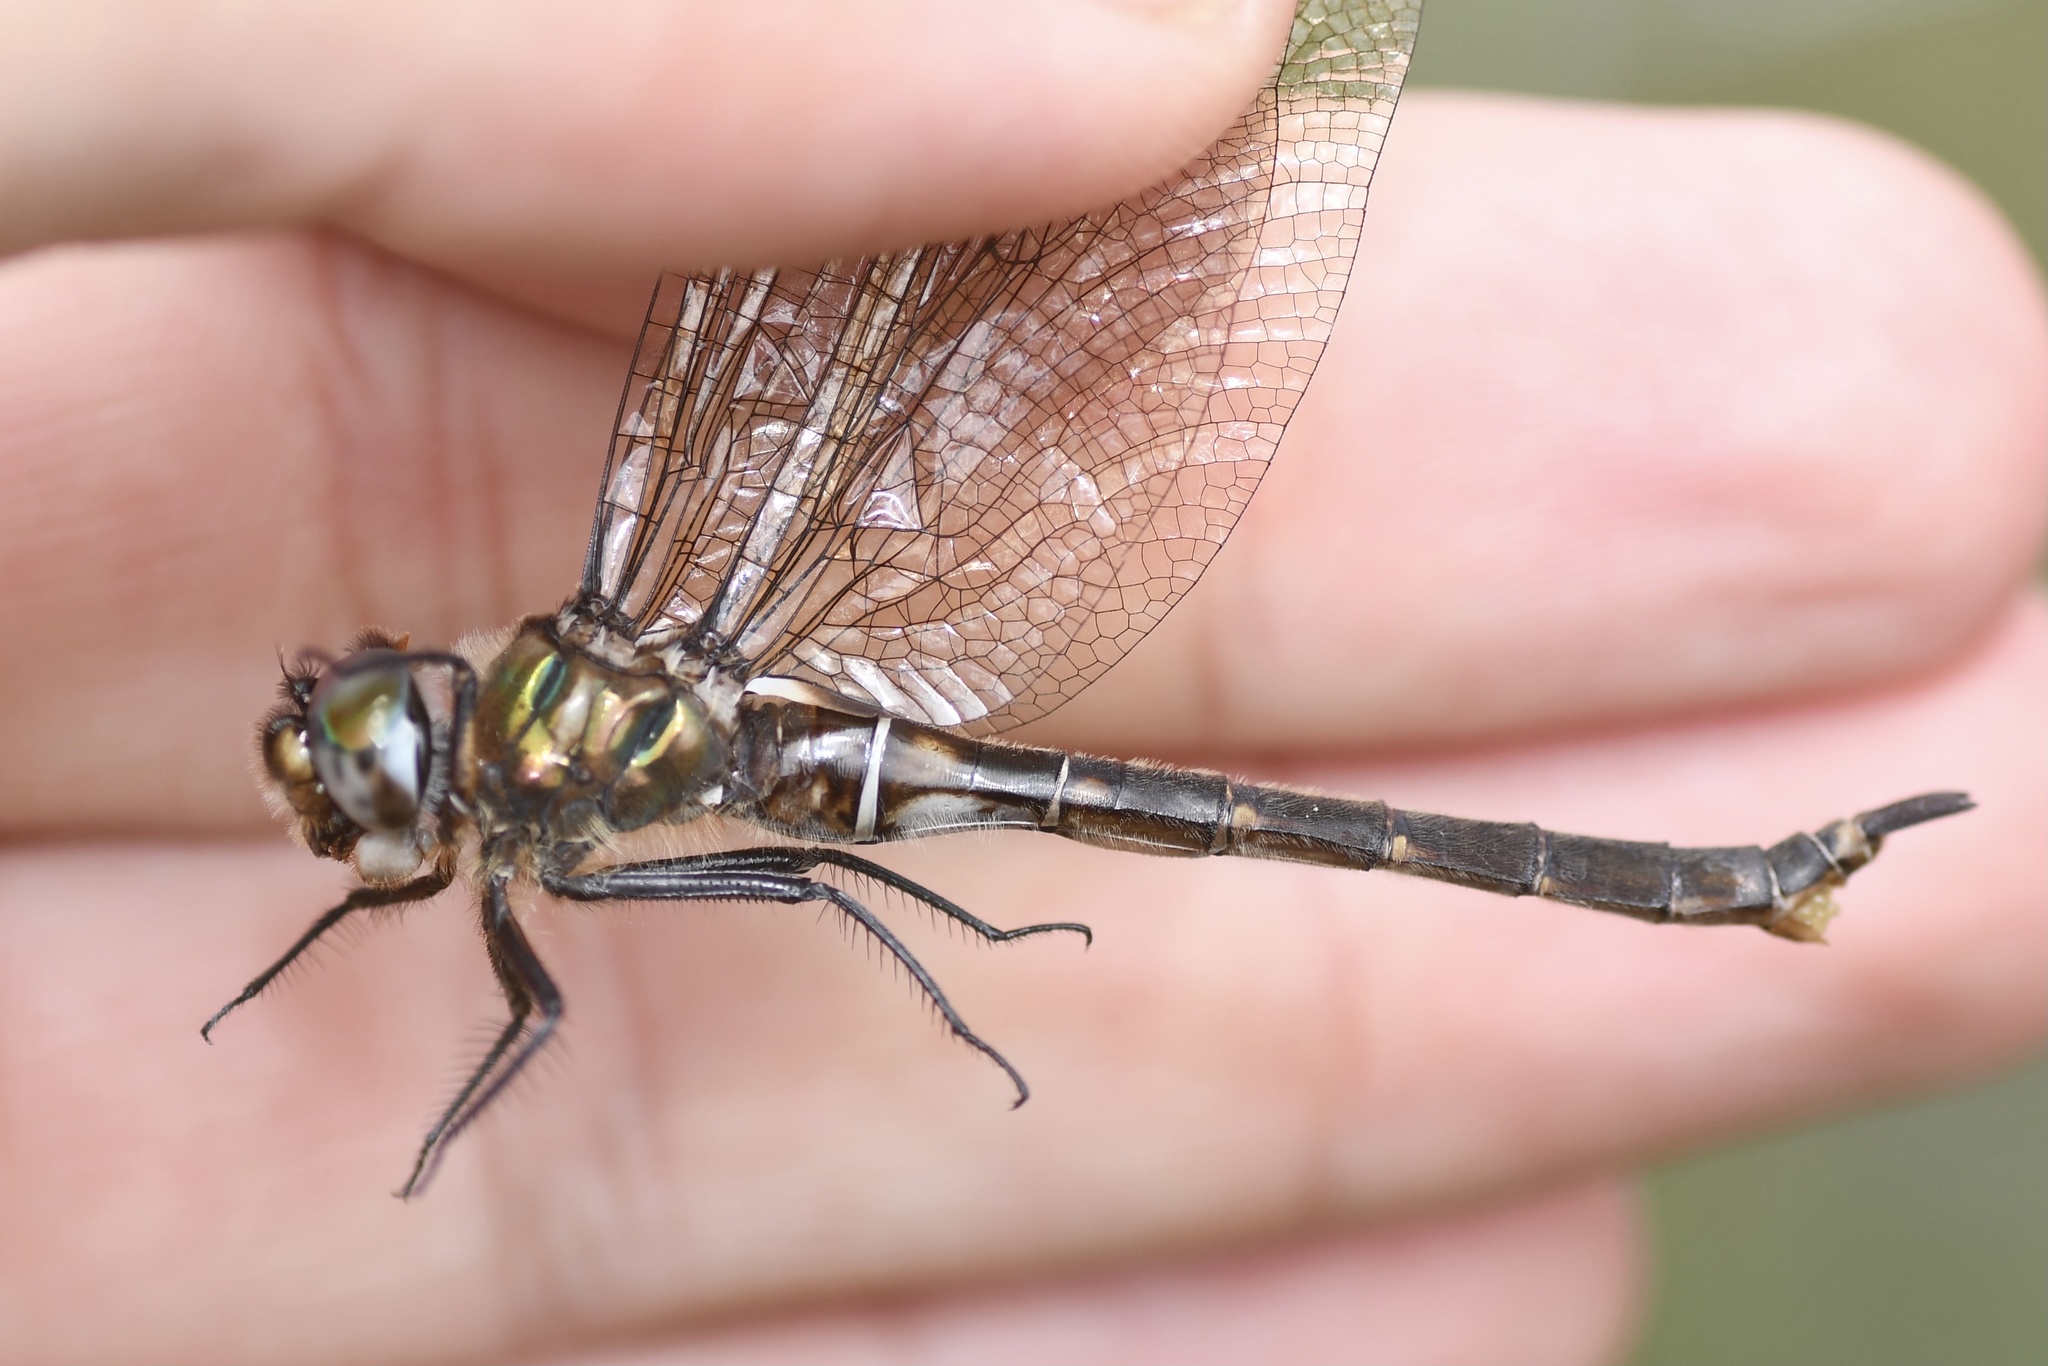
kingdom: Animalia
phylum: Arthropoda
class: Insecta
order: Odonata
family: Corduliidae
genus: Somatochlora
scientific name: Somatochlora brevicincta
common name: Quebec emerald
